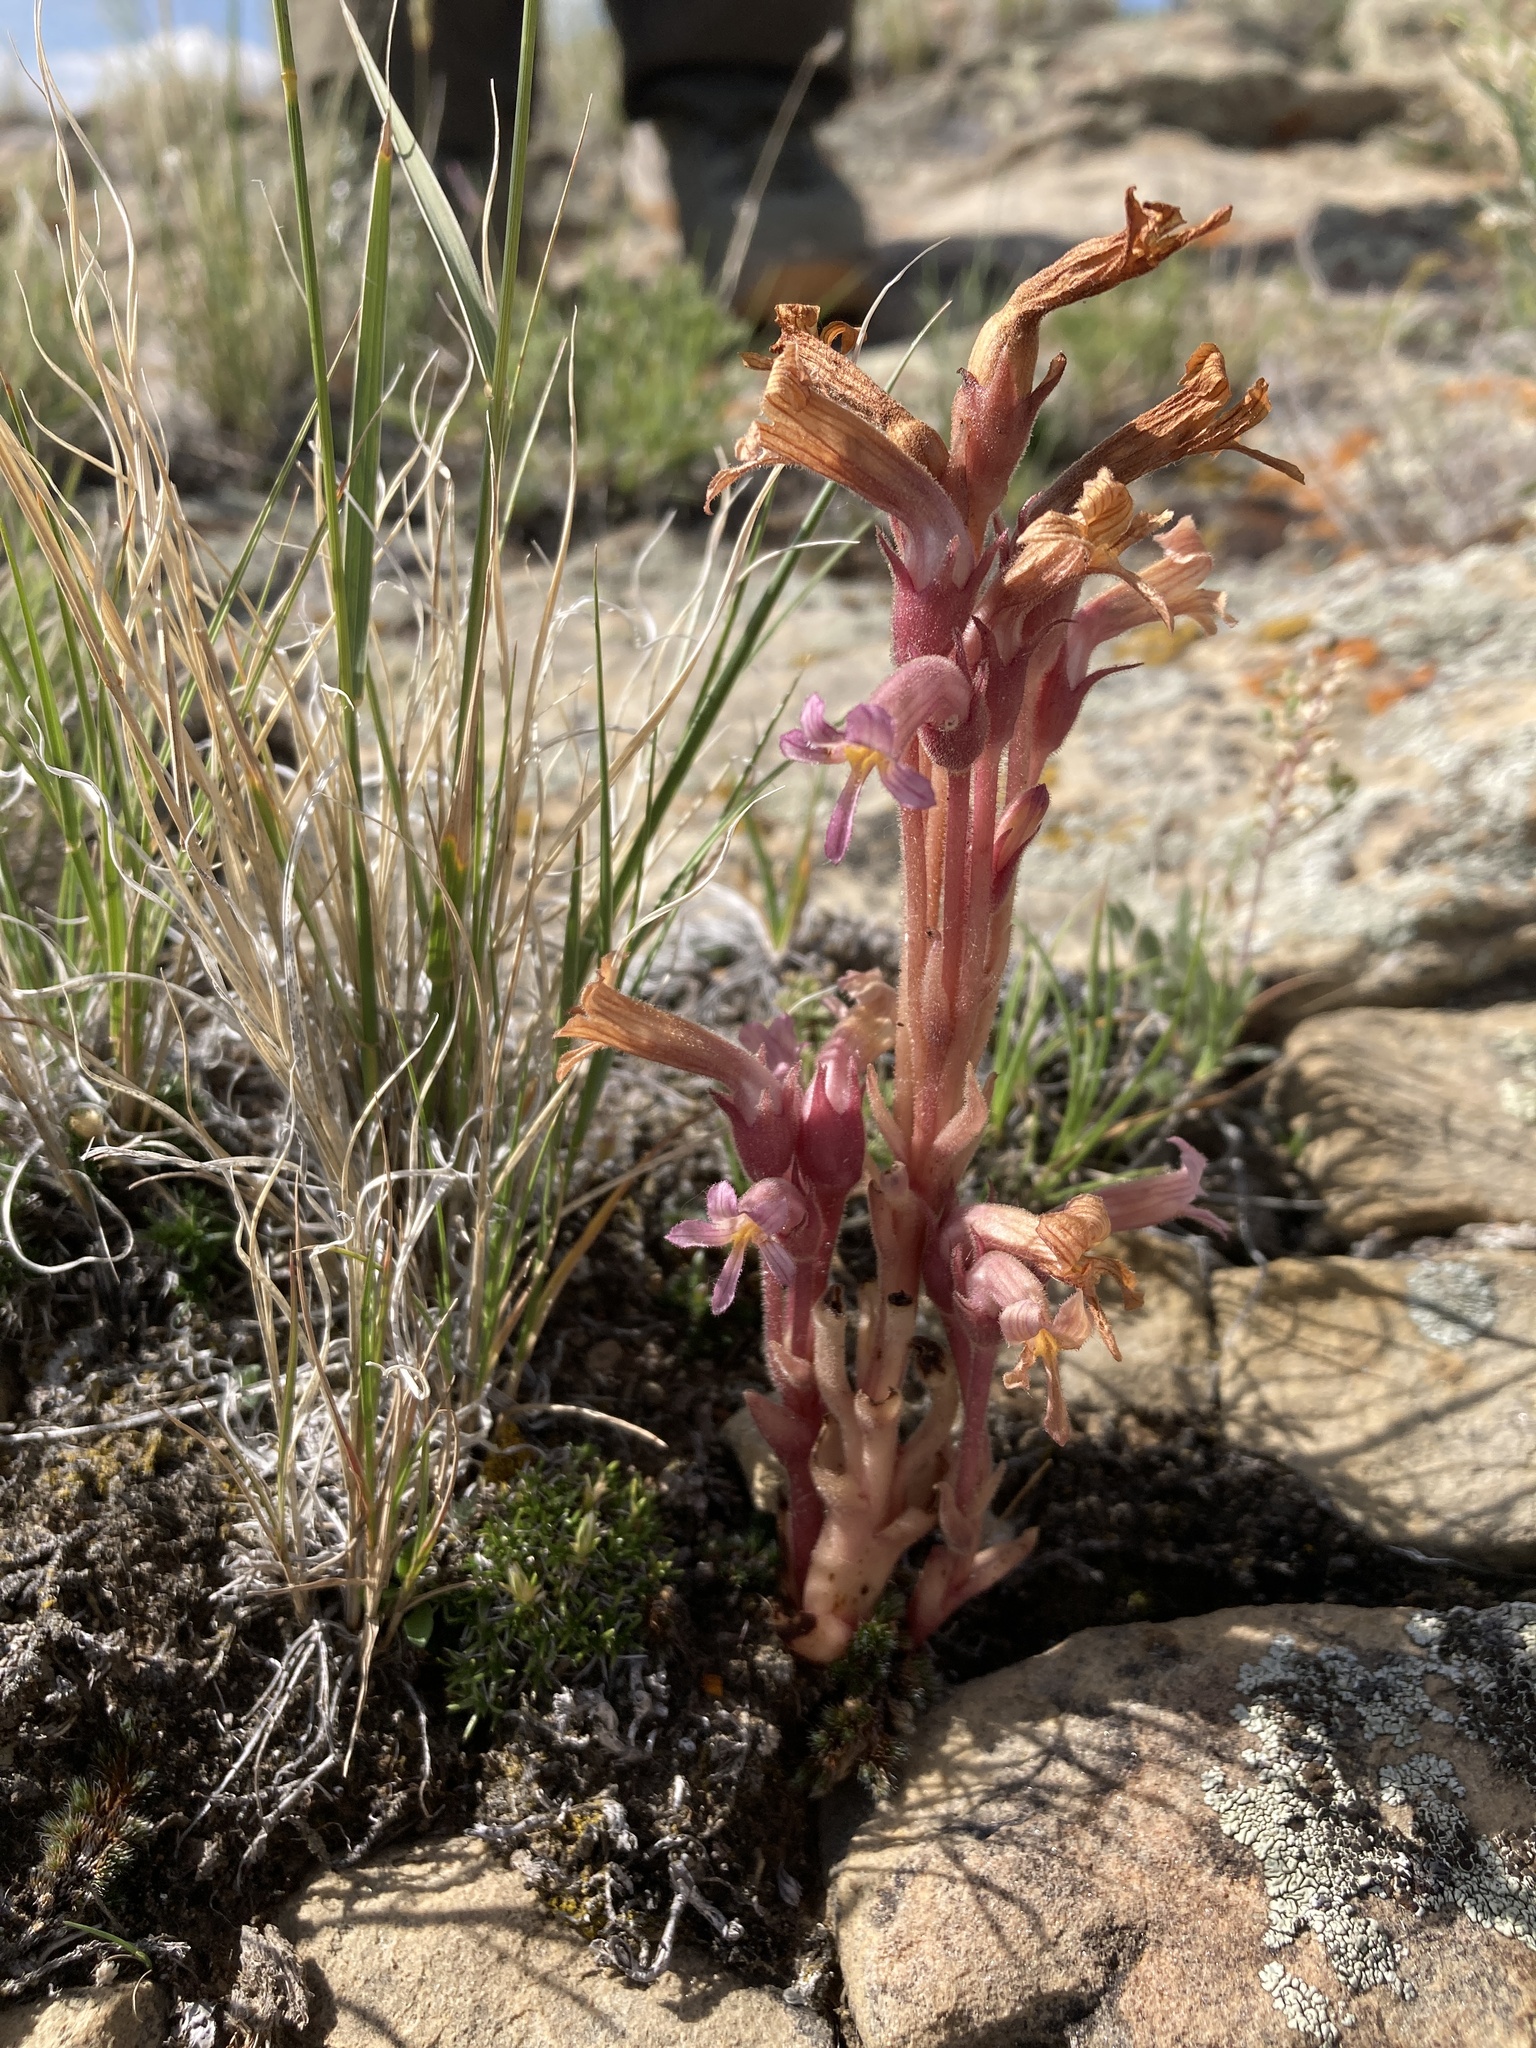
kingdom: Plantae
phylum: Tracheophyta
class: Magnoliopsida
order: Lamiales
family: Orobanchaceae
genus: Aphyllon
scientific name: Aphyllon fasciculatum
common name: Clustered broomrape
